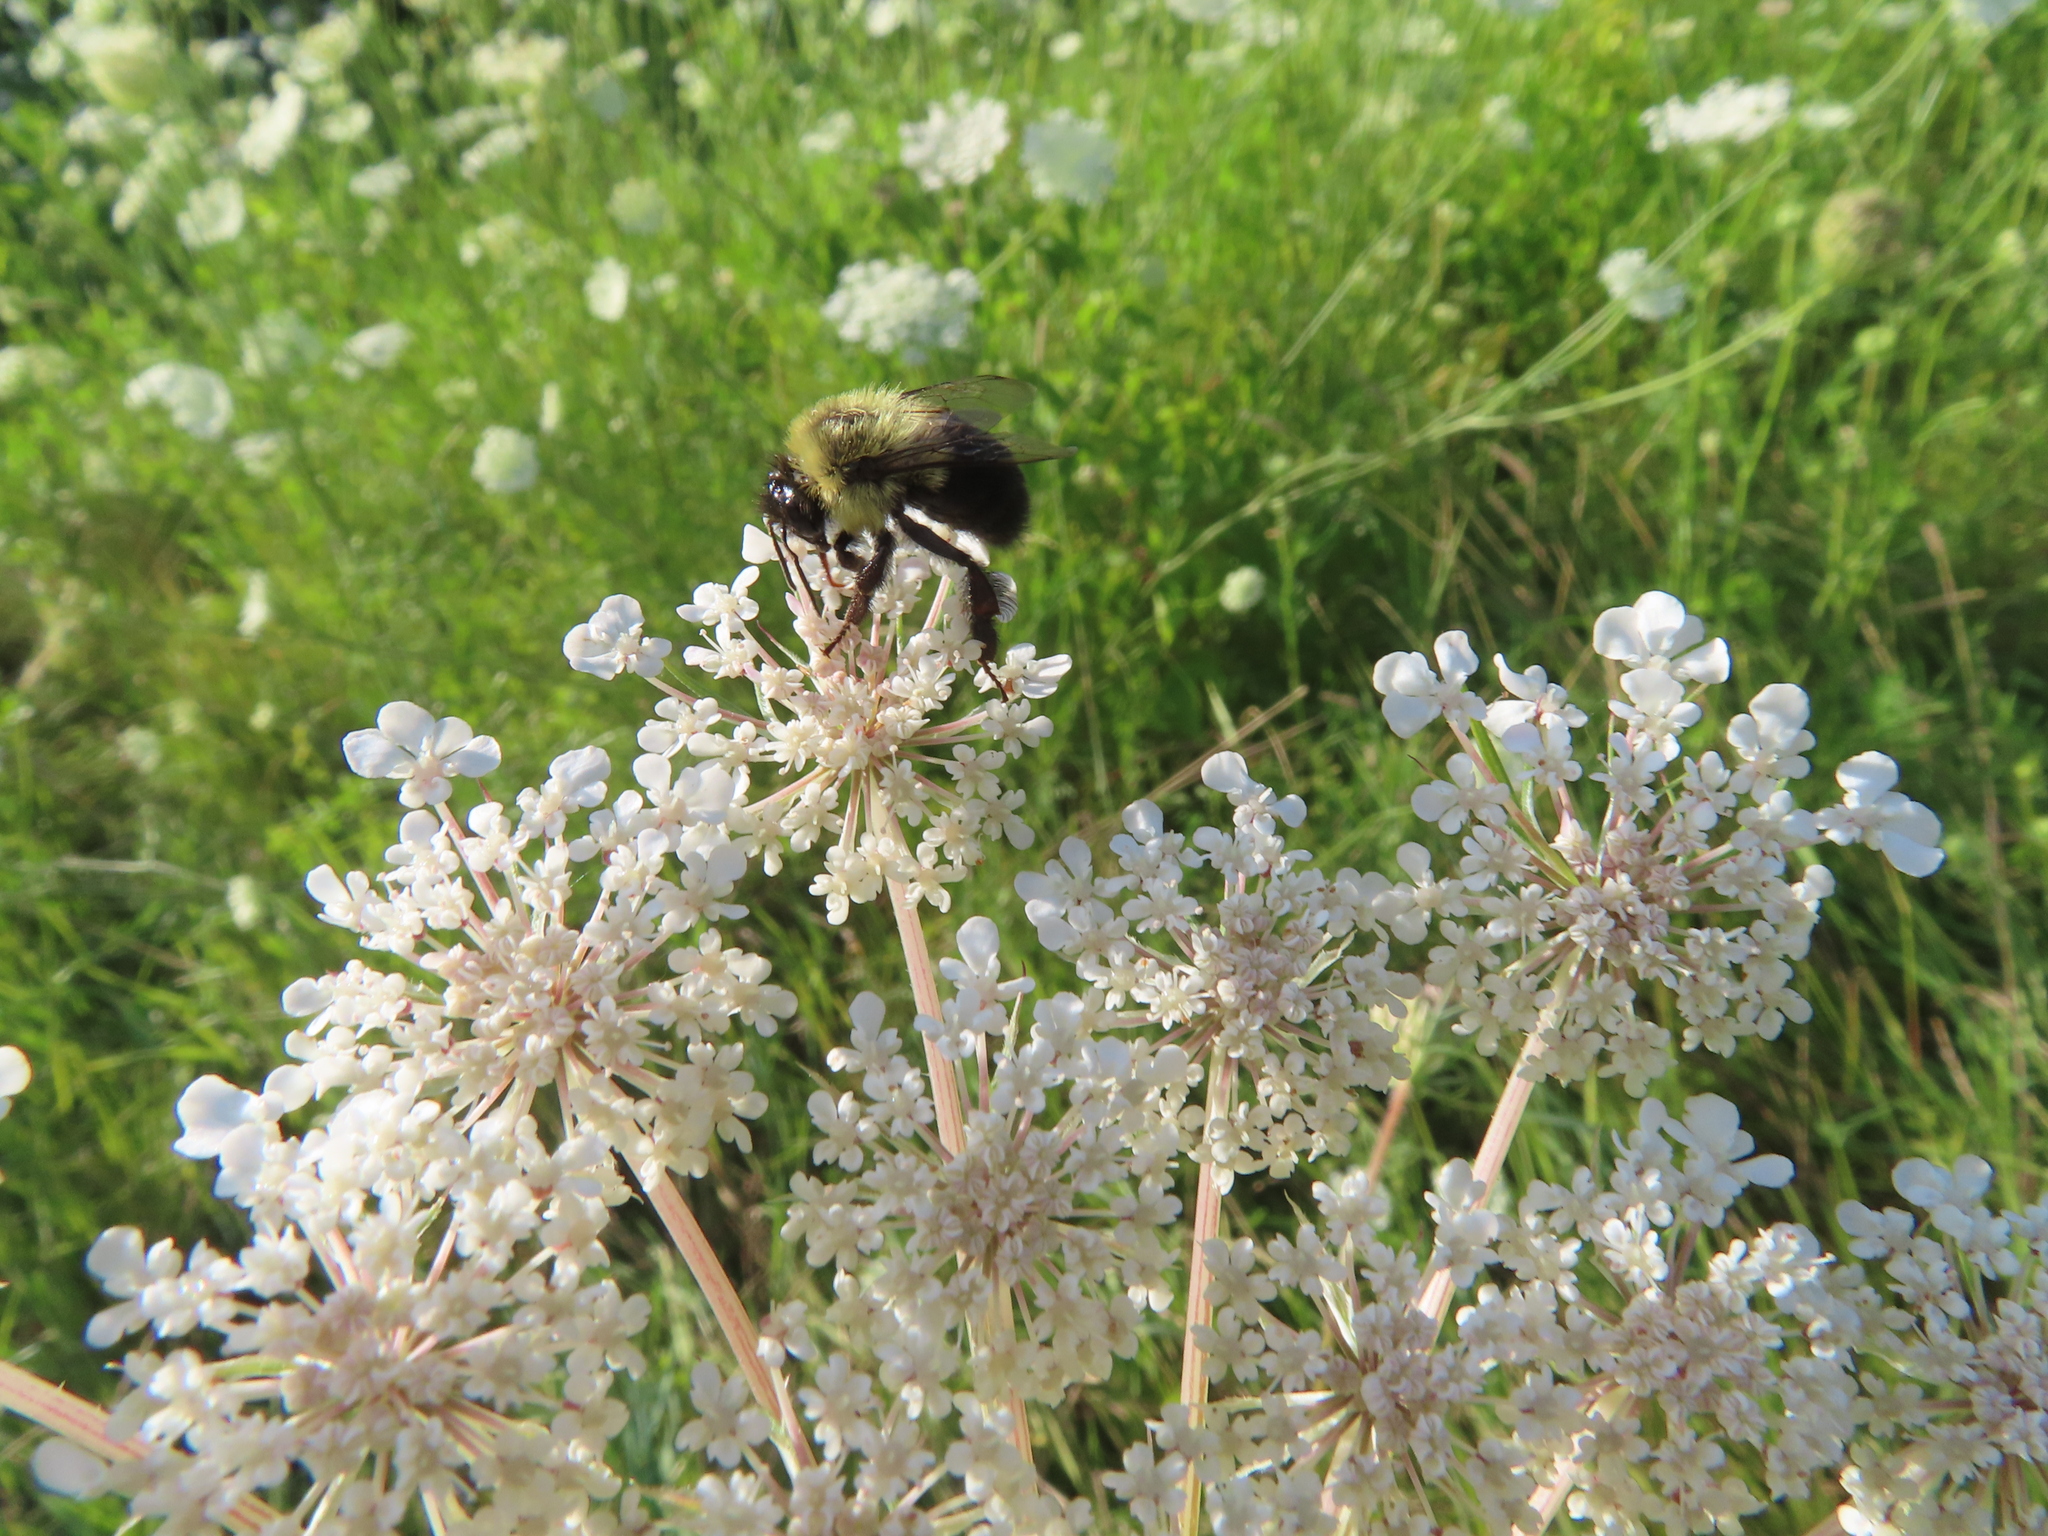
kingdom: Animalia
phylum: Arthropoda
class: Insecta
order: Hymenoptera
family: Apidae
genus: Bombus
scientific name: Bombus impatiens
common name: Common eastern bumble bee
